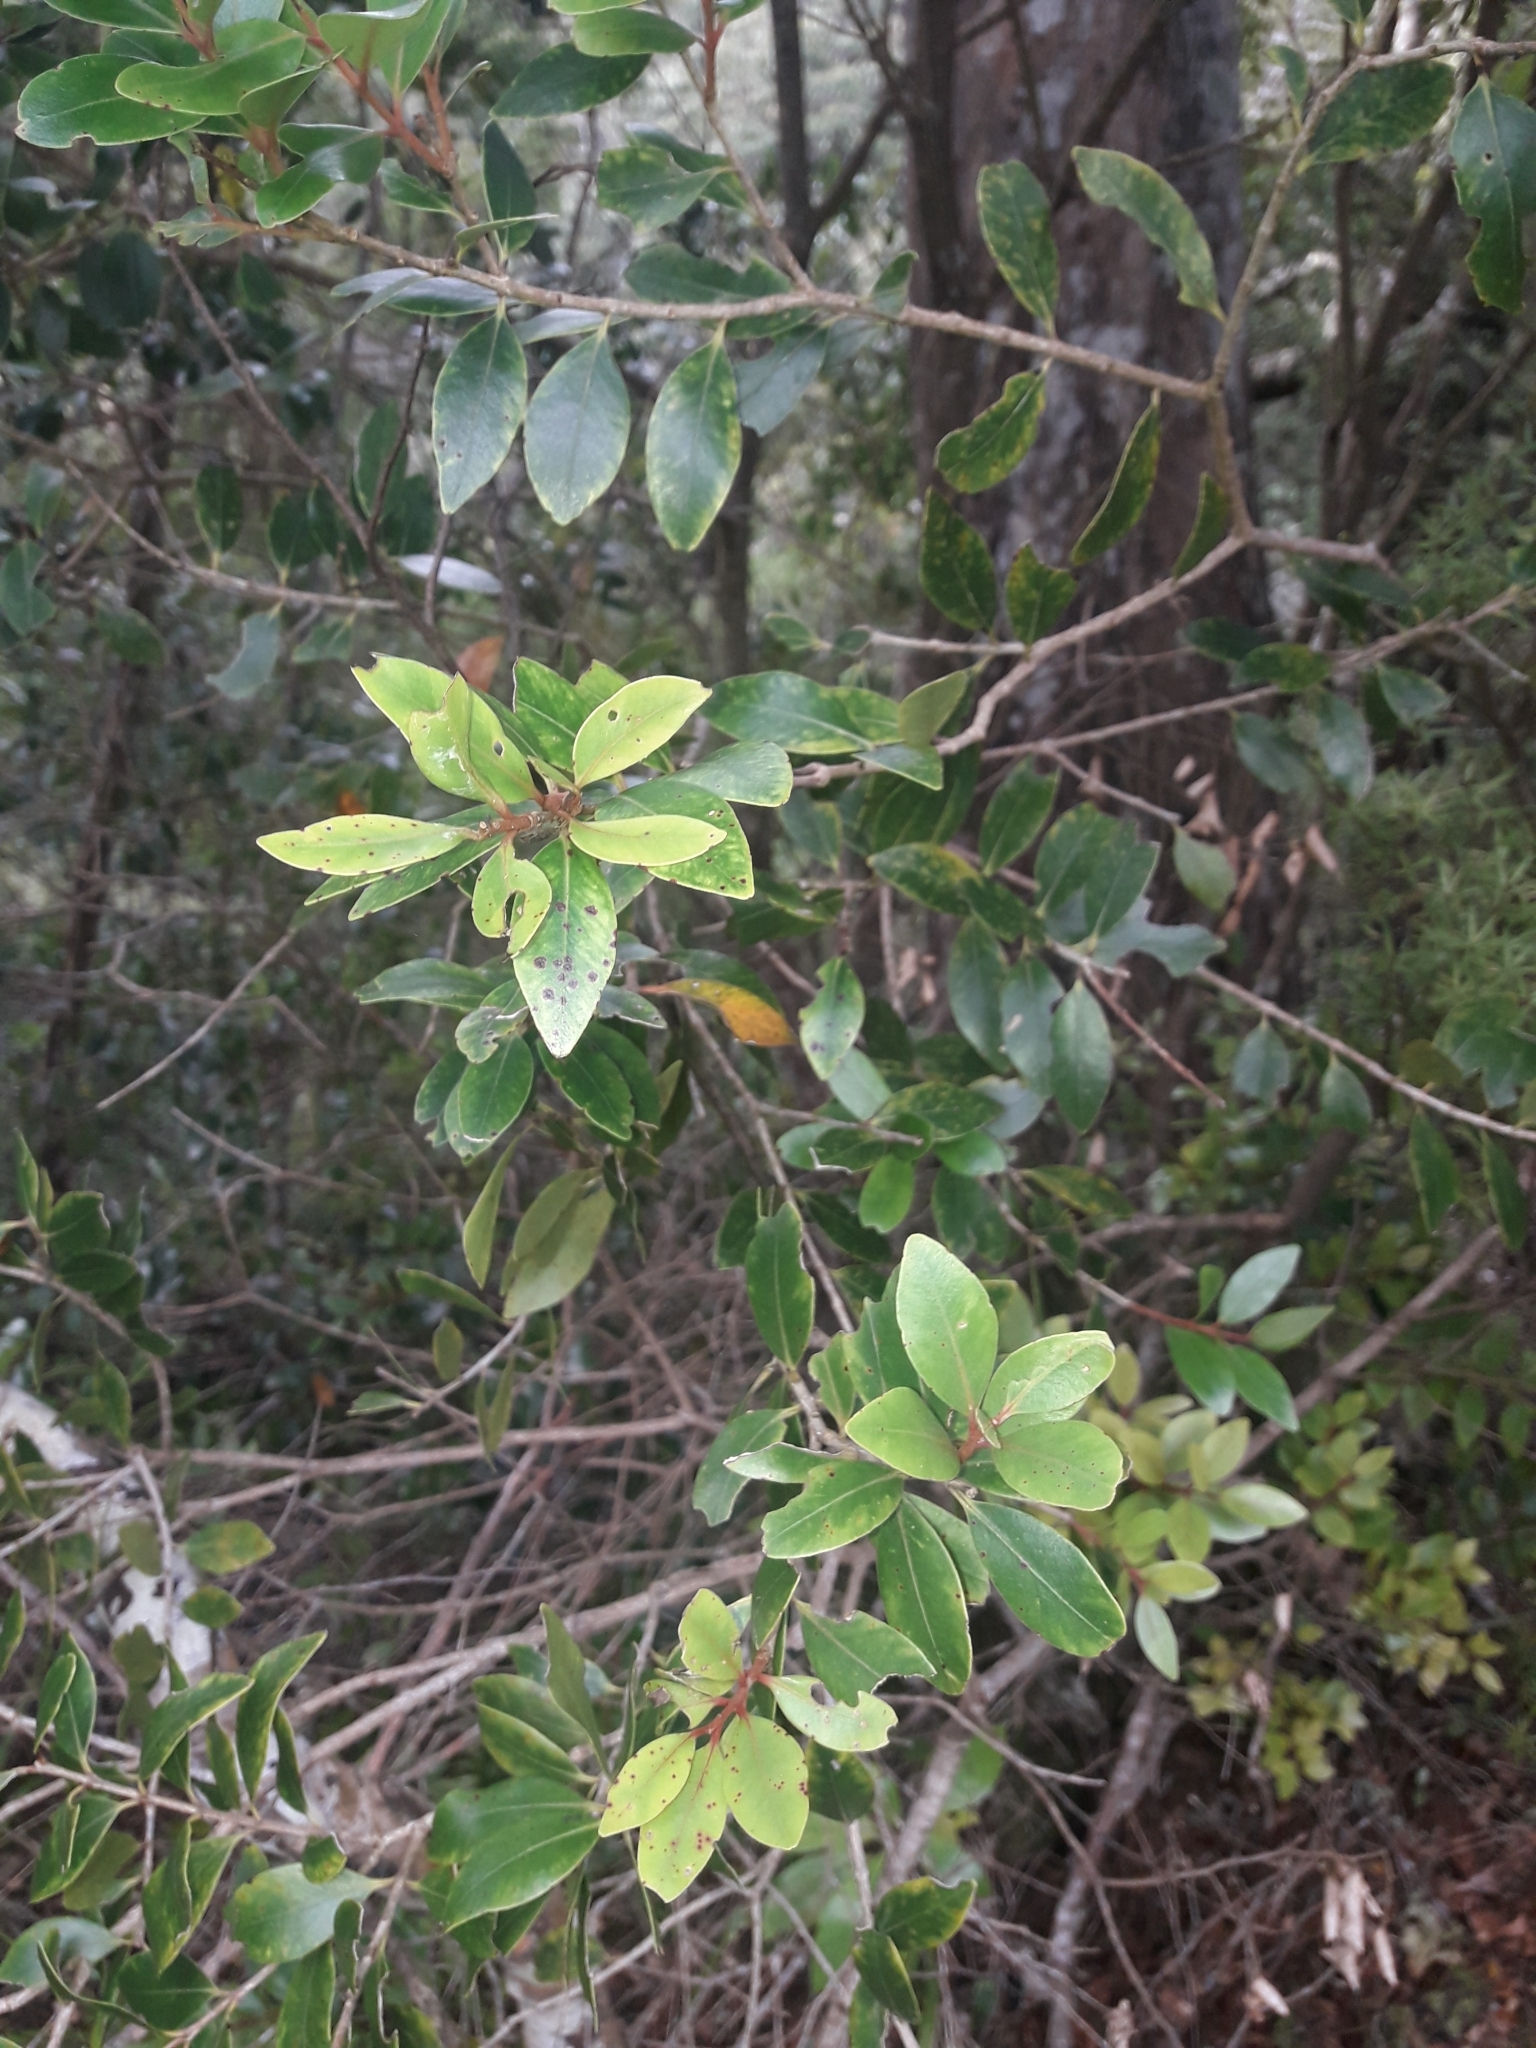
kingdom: Plantae
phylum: Tracheophyta
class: Magnoliopsida
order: Myrtales
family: Myrtaceae
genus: Metrosideros
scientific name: Metrosideros robusta
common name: Northern rata
